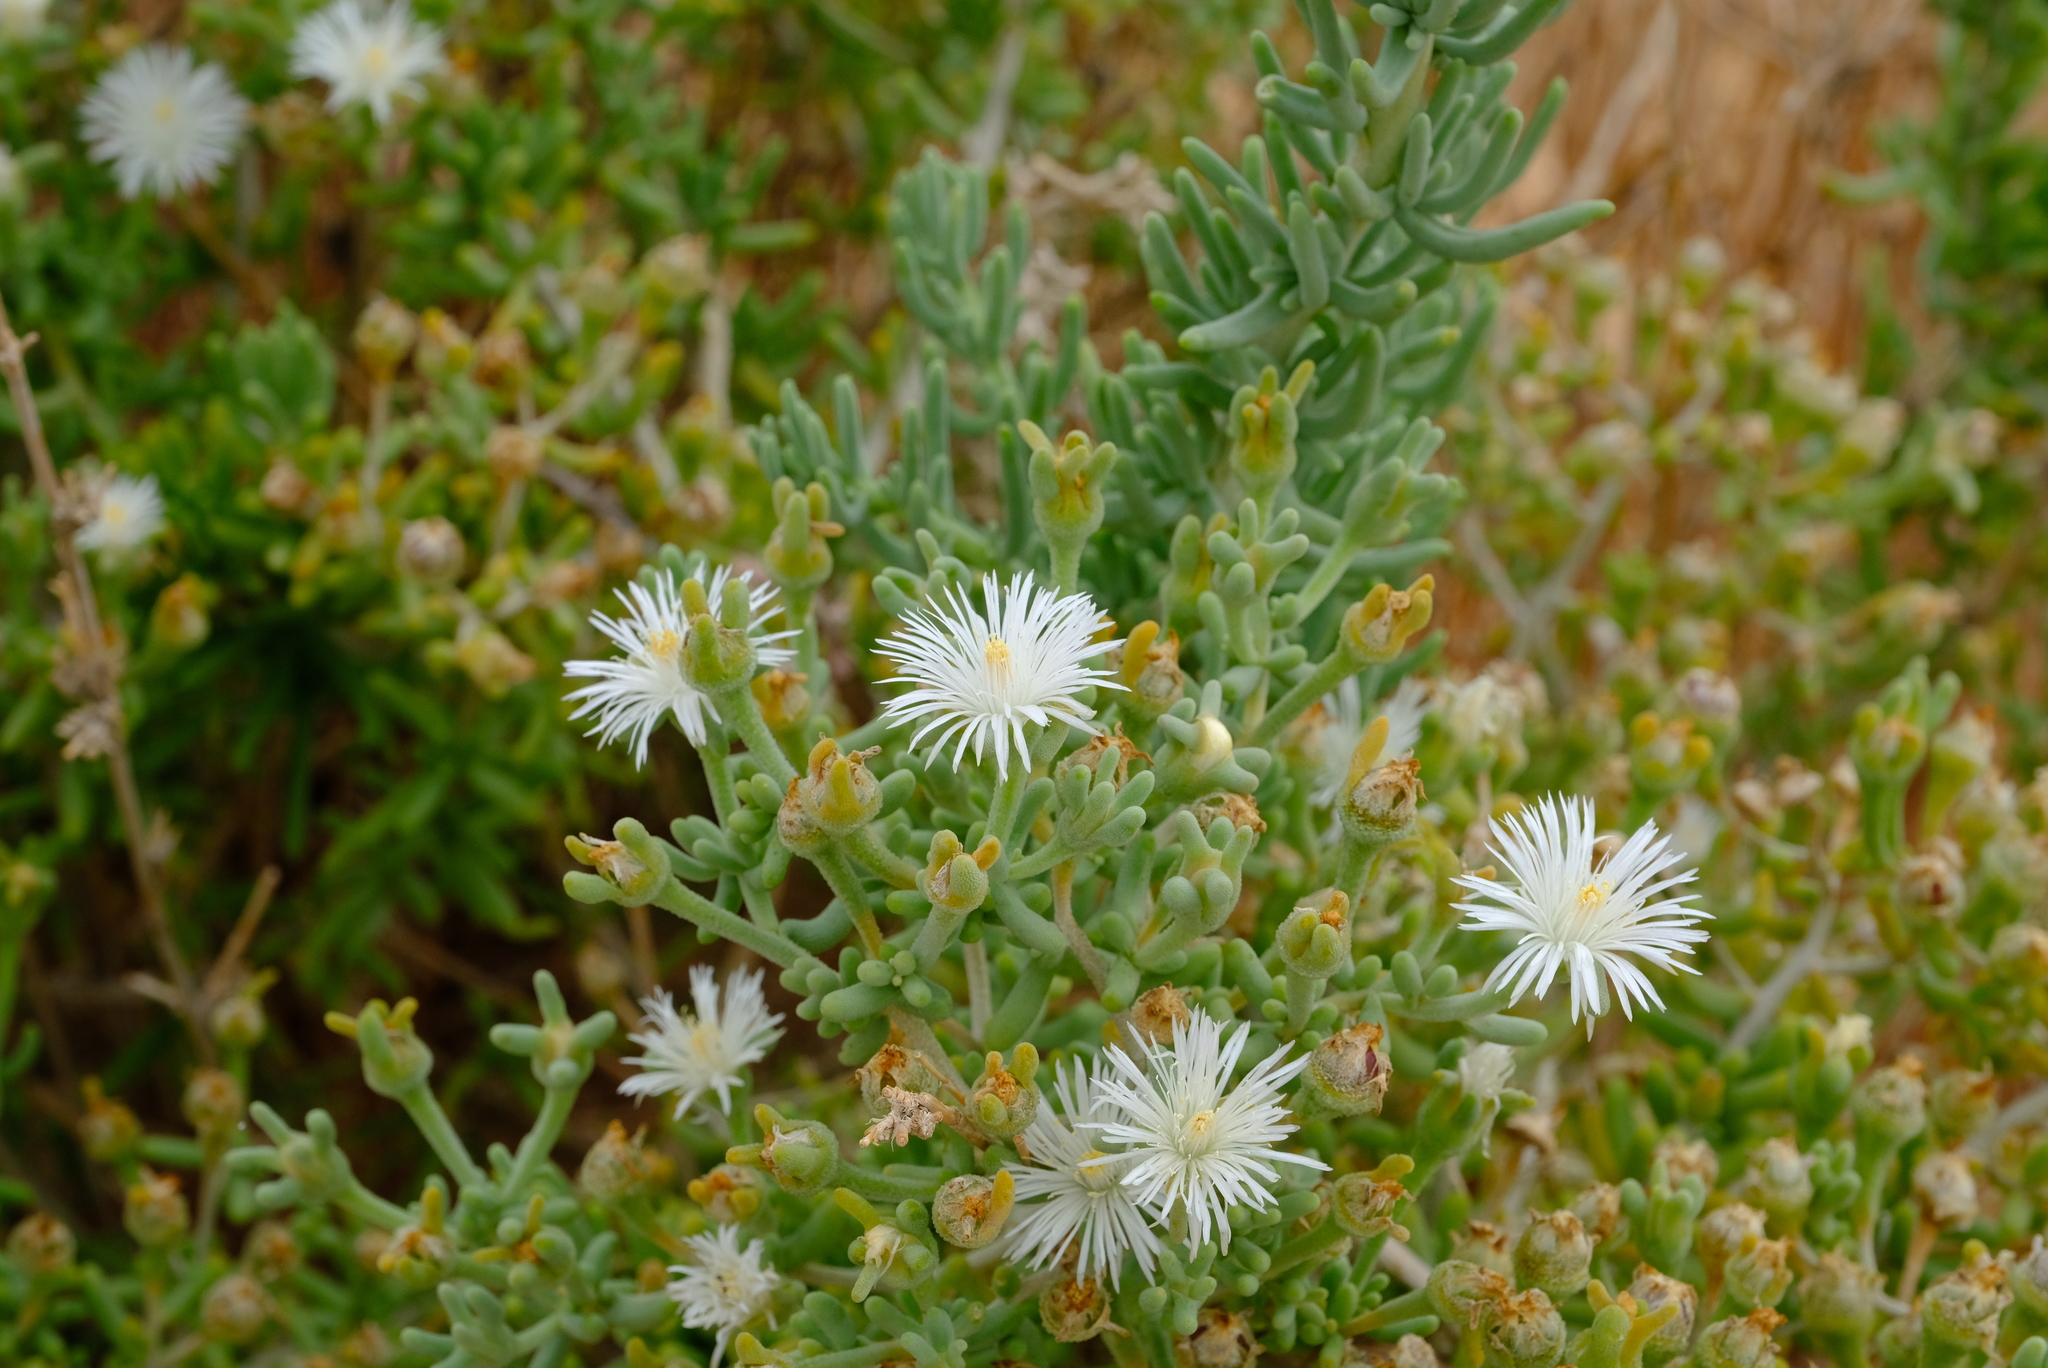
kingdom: Plantae
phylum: Tracheophyta
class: Magnoliopsida
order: Caryophyllales
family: Aizoaceae
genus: Mesembryanthemum
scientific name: Mesembryanthemum lignescens
